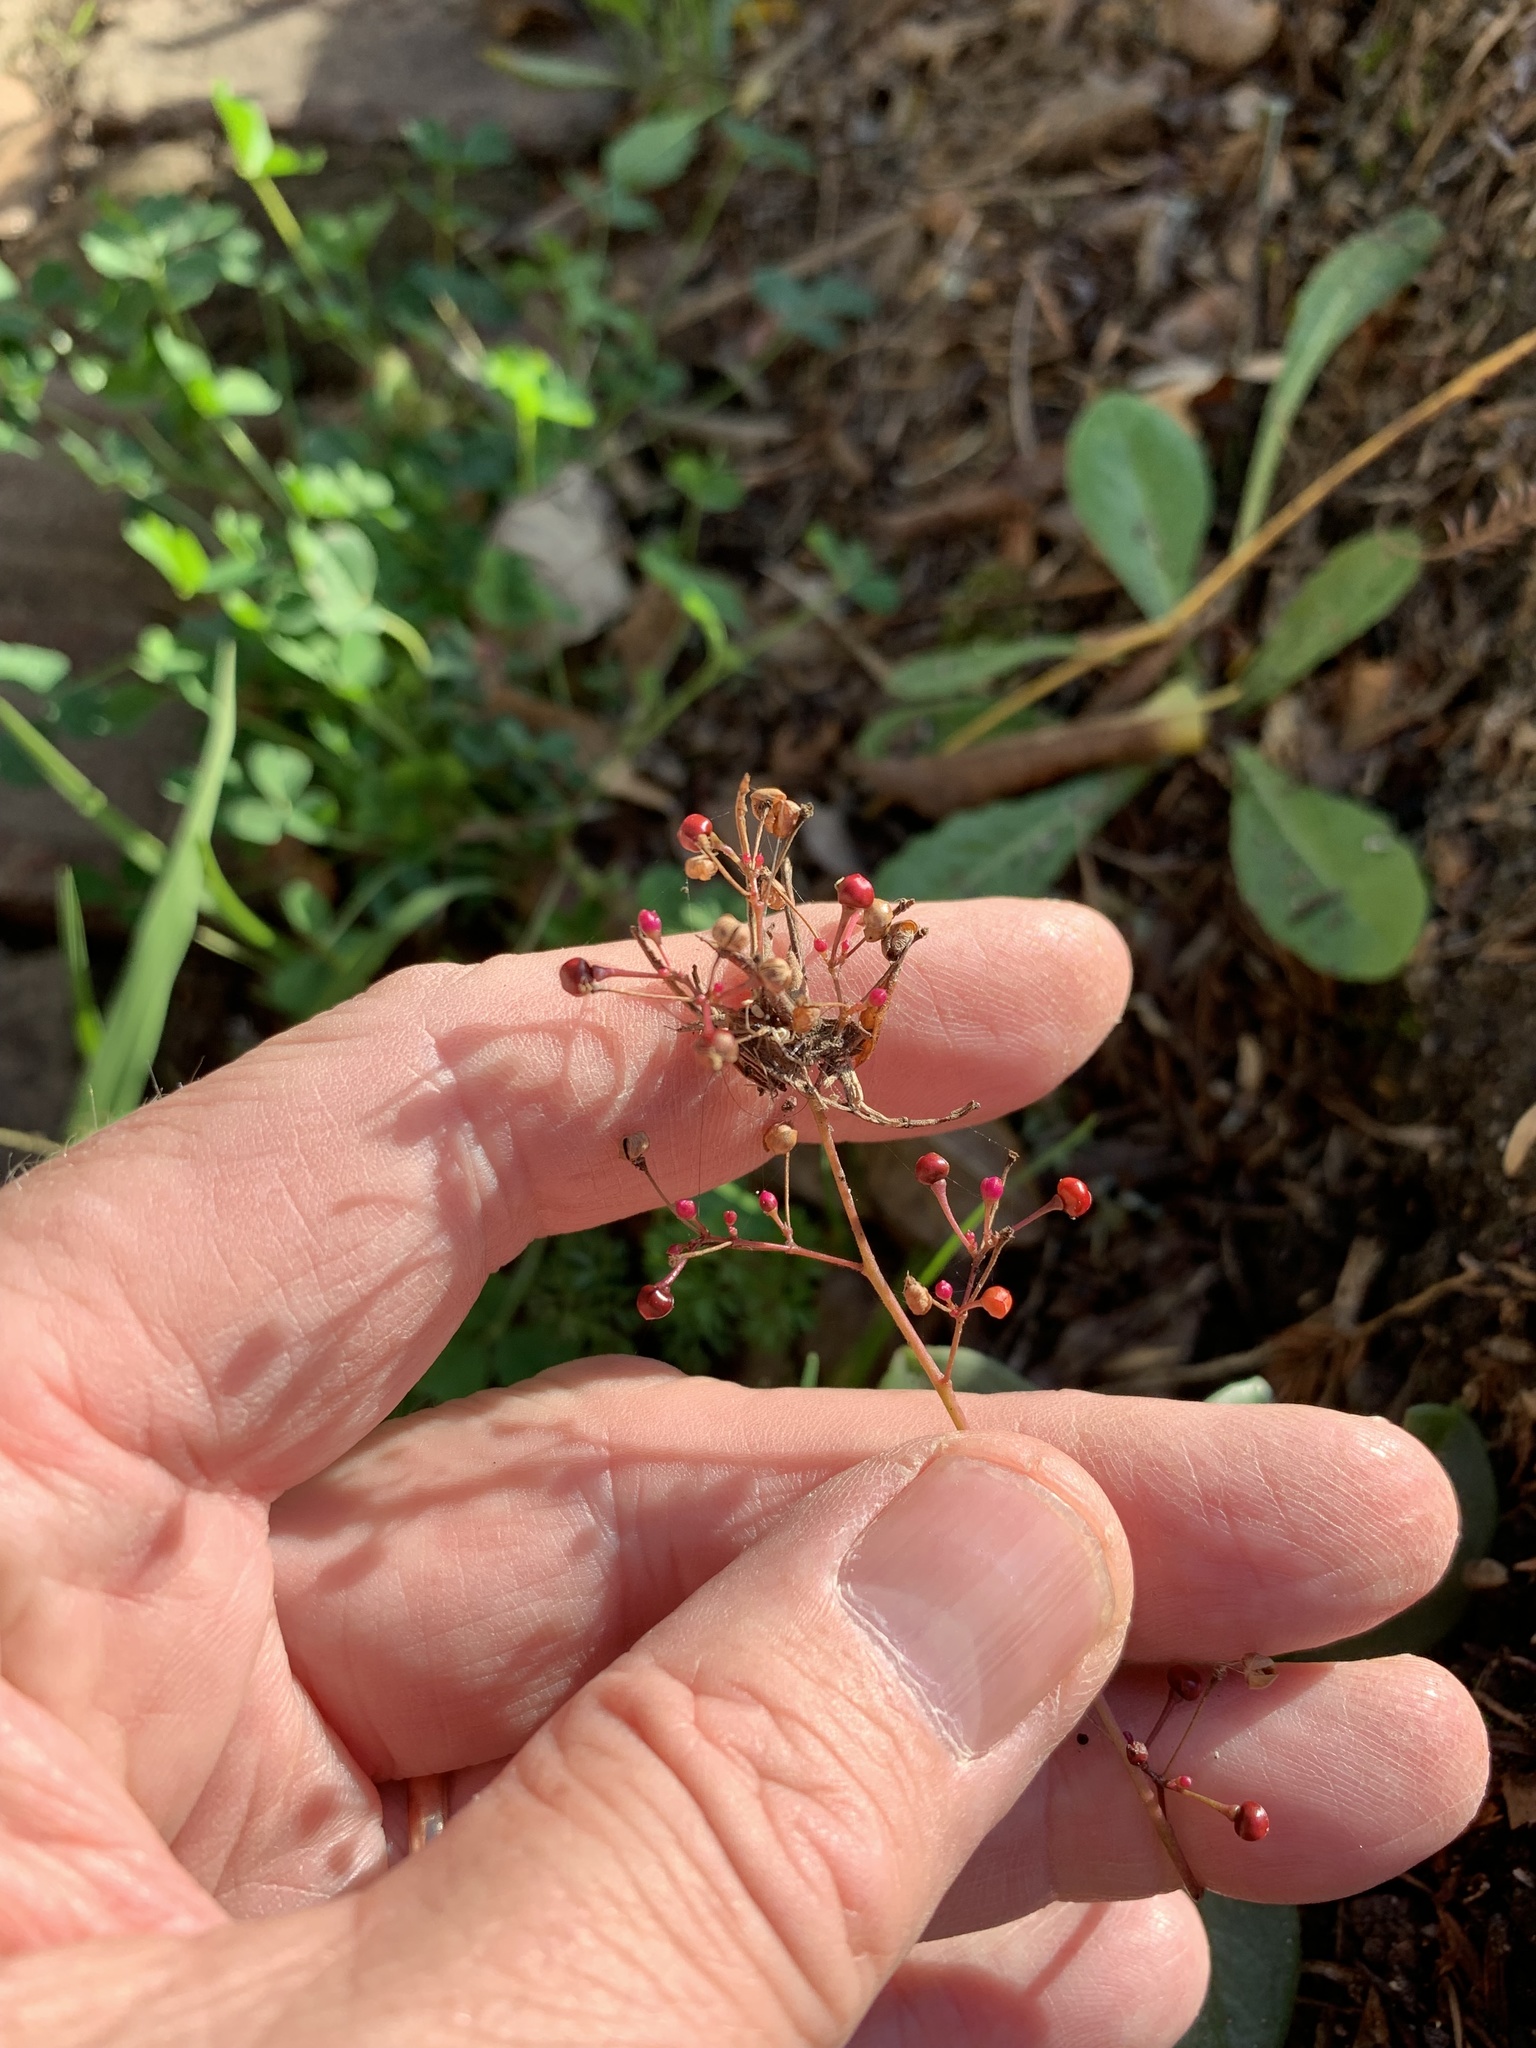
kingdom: Plantae
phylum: Tracheophyta
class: Magnoliopsida
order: Caryophyllales
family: Talinaceae
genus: Talinum
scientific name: Talinum paniculatum
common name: Jewels of opar
